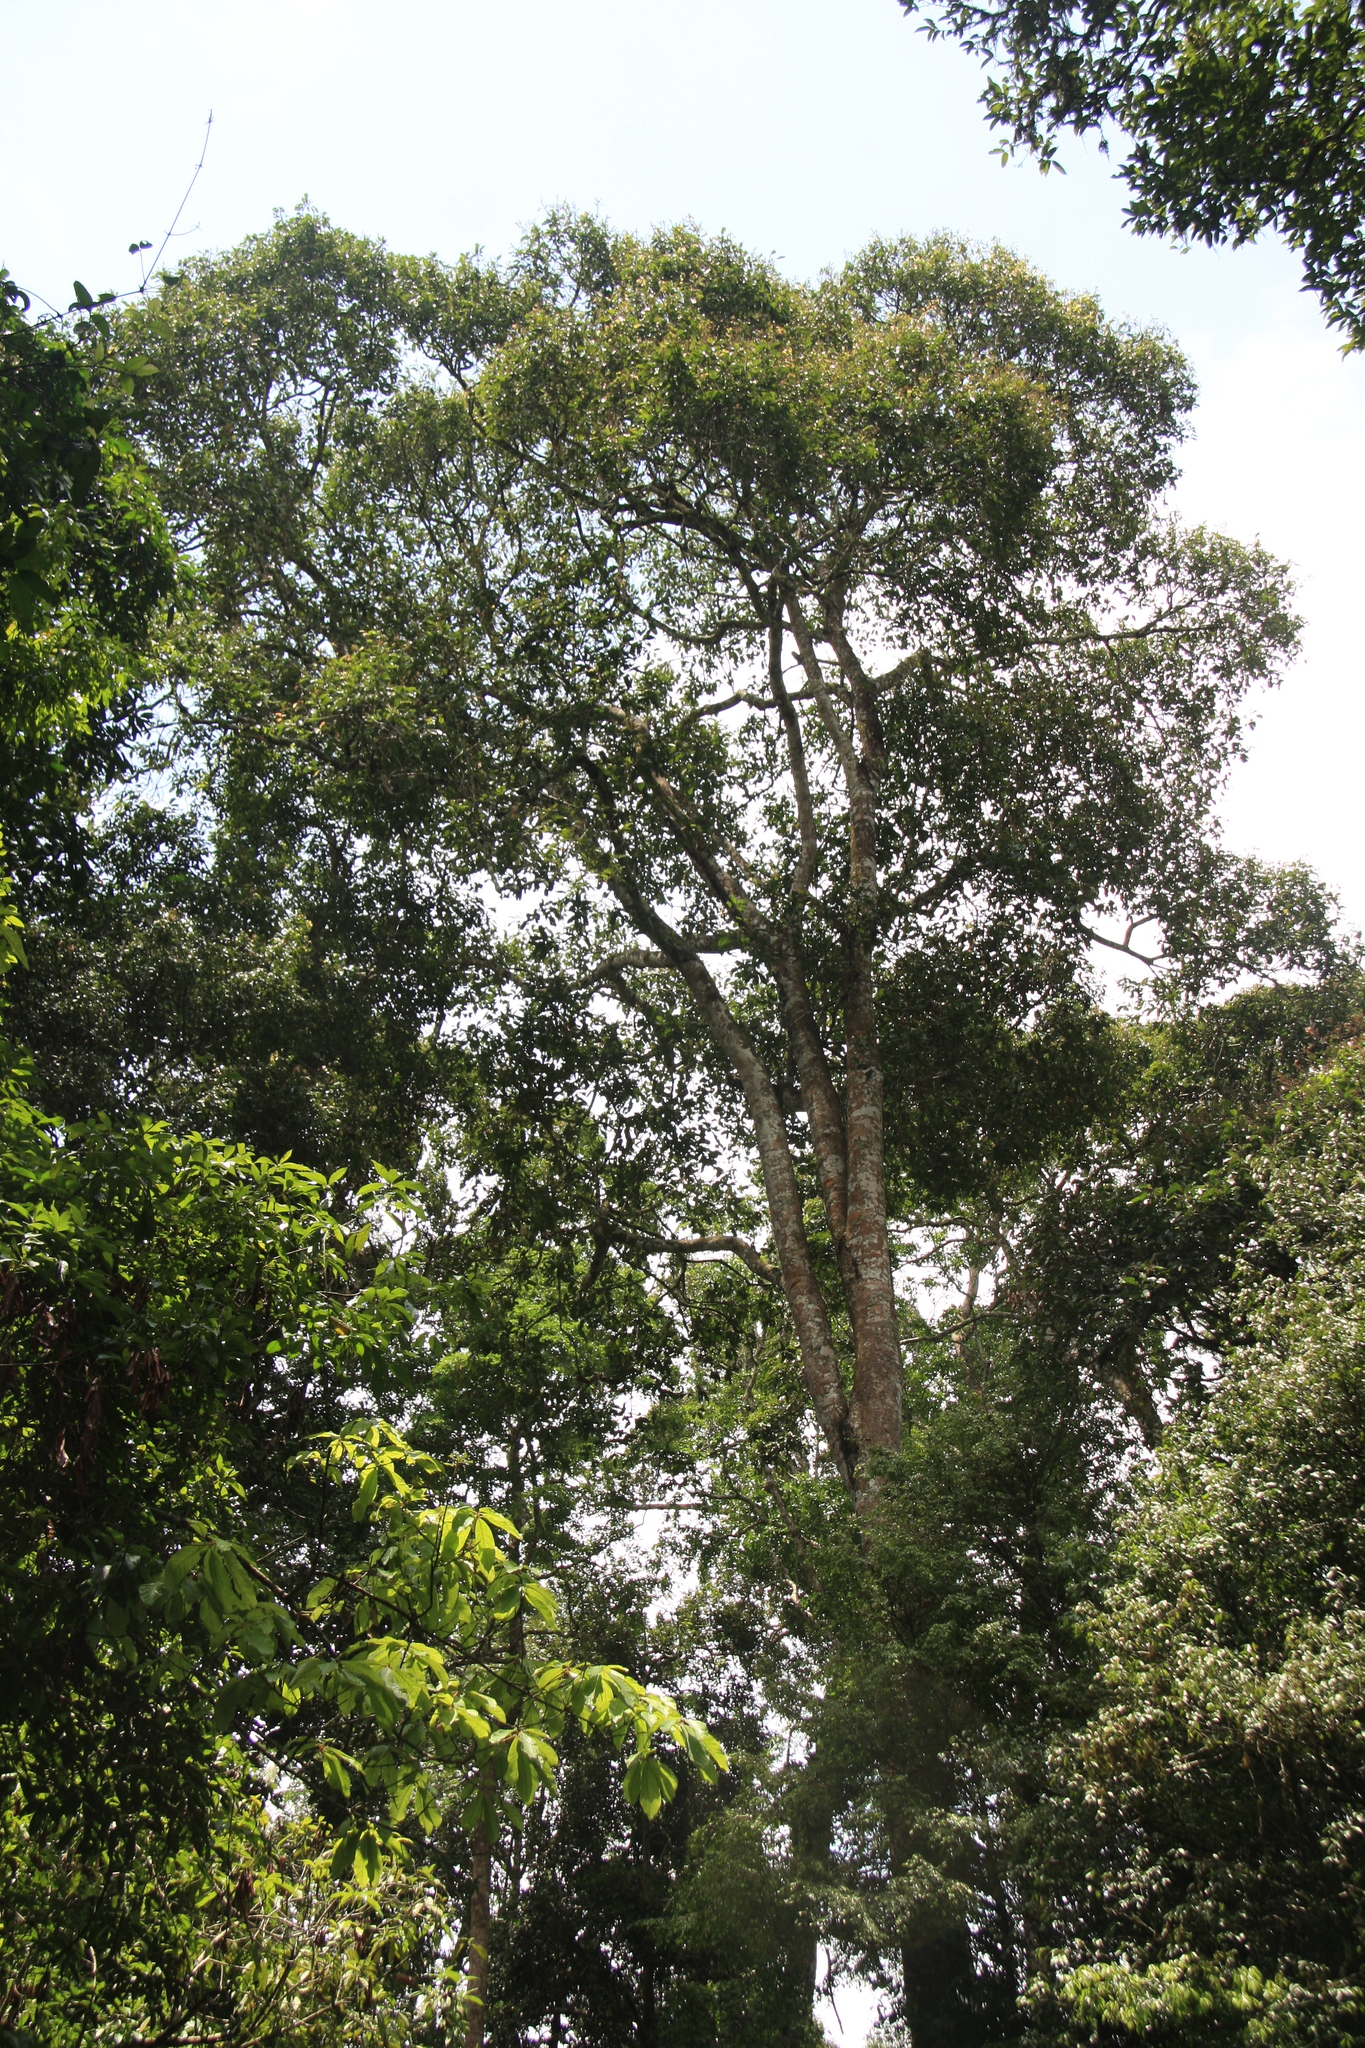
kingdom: Plantae
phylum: Tracheophyta
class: Magnoliopsida
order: Malvales
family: Dipterocarpaceae
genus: Vateria
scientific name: Vateria indica
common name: White dammar
